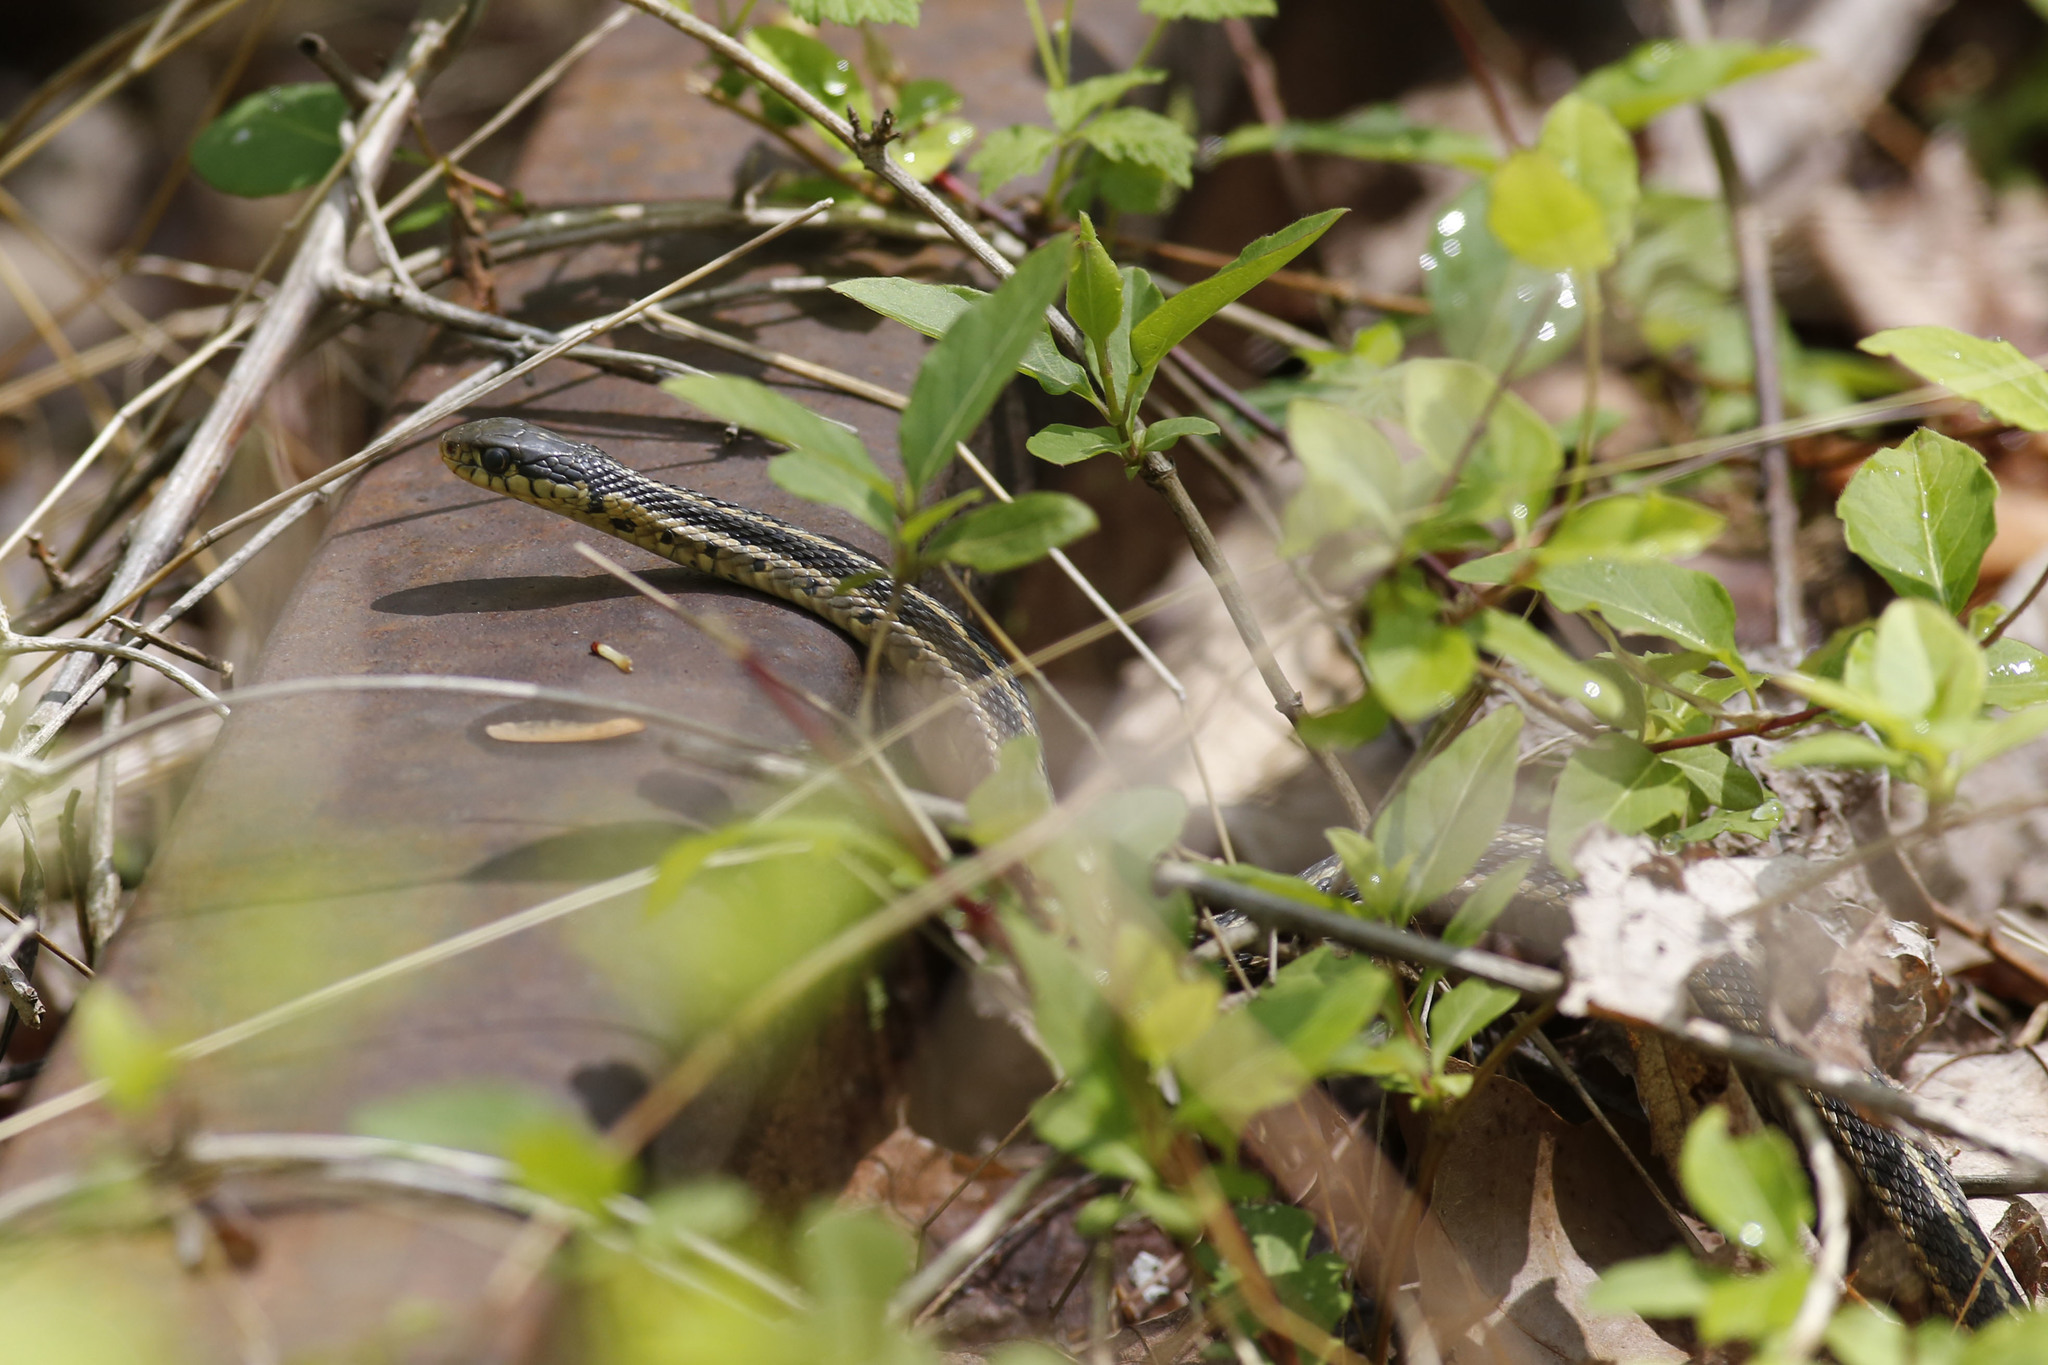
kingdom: Animalia
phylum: Chordata
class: Squamata
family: Colubridae
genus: Thamnophis
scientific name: Thamnophis sirtalis
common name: Common garter snake
